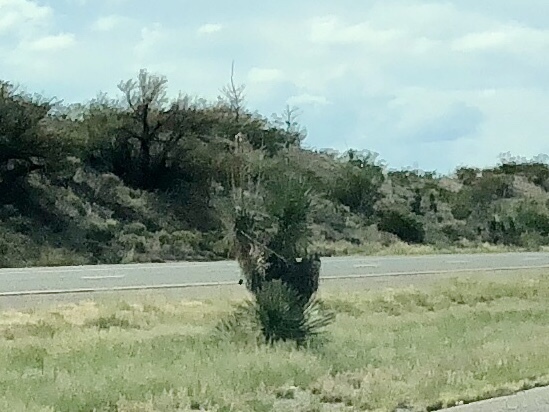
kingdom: Plantae
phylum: Tracheophyta
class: Liliopsida
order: Asparagales
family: Asparagaceae
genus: Yucca
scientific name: Yucca elata
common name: Palmella
